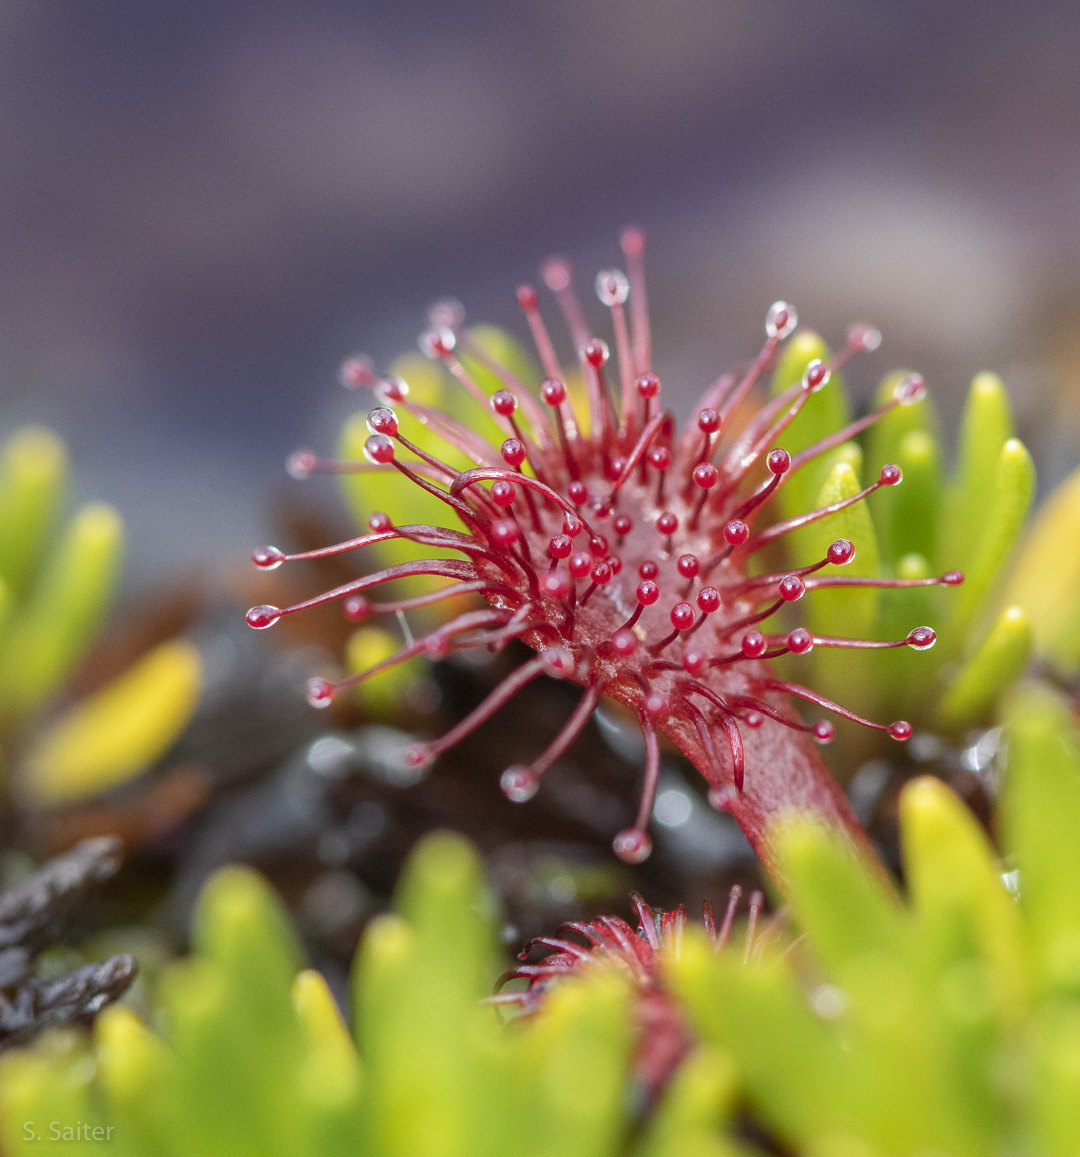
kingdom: Plantae
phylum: Tracheophyta
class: Magnoliopsida
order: Caryophyllales
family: Droseraceae
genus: Drosera
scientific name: Drosera uniflora
